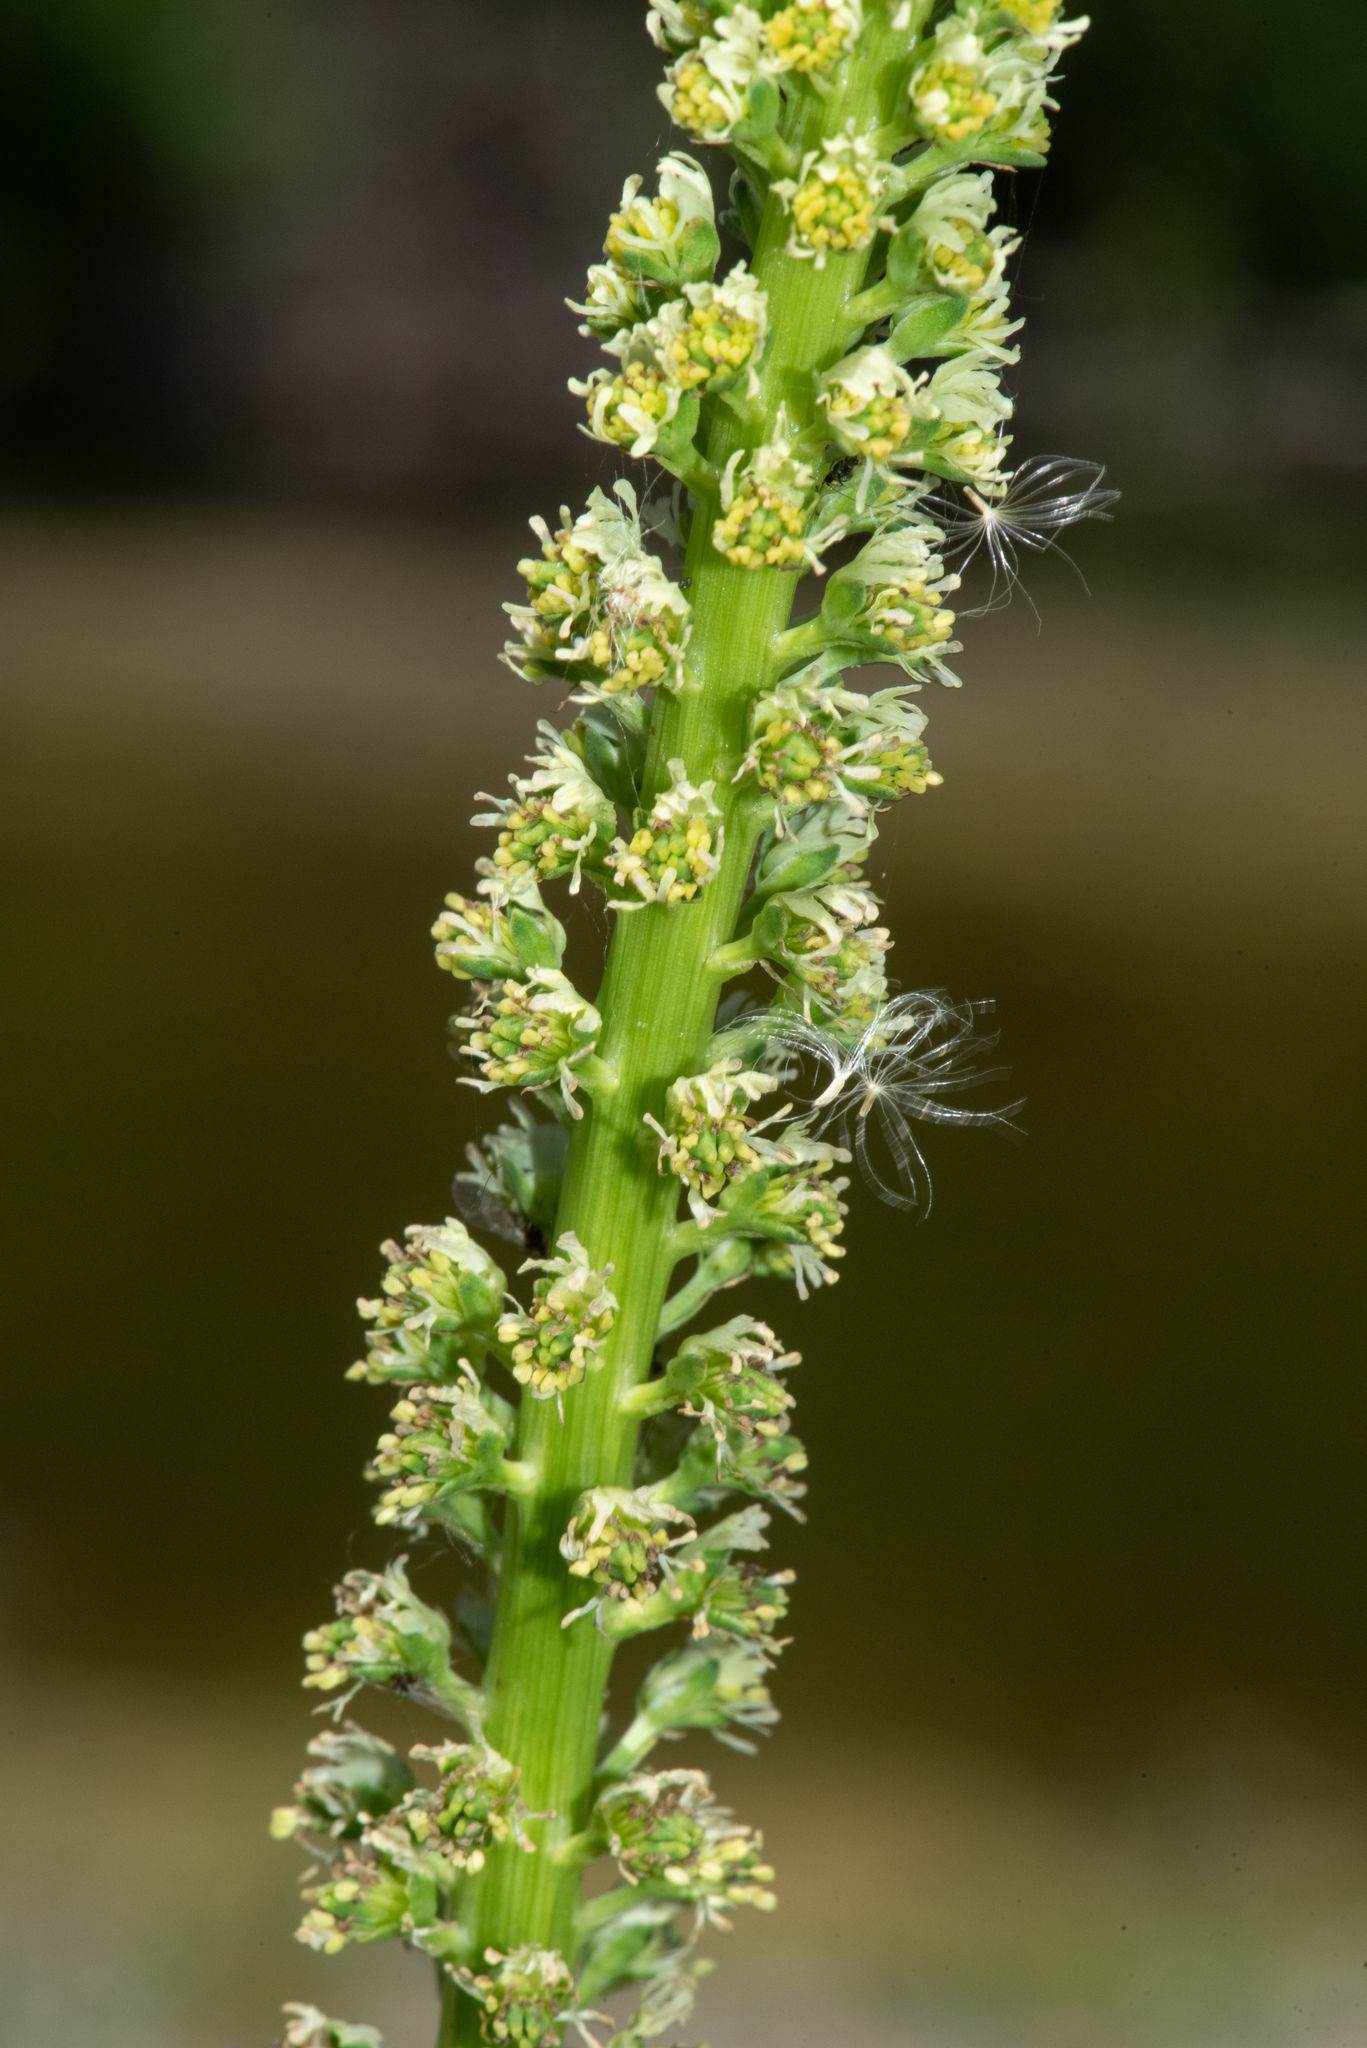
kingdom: Plantae
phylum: Tracheophyta
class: Magnoliopsida
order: Brassicales
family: Resedaceae
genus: Reseda
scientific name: Reseda luteola
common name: Weld
